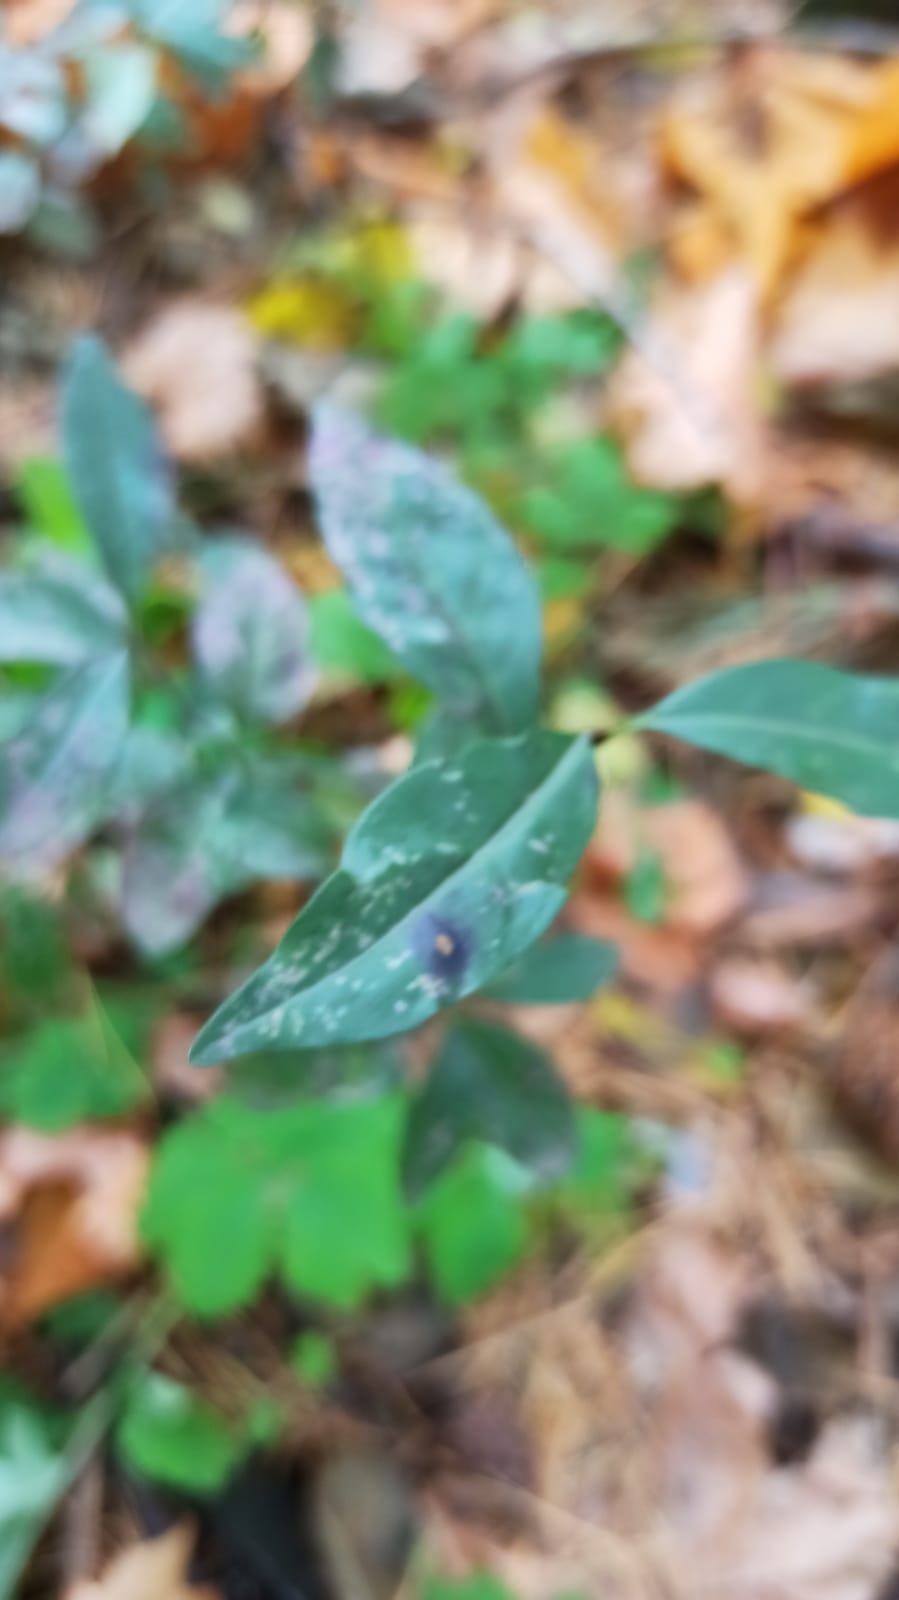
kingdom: Plantae
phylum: Tracheophyta
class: Magnoliopsida
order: Lamiales
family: Oleaceae
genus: Ligustrum
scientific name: Ligustrum vulgare
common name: Wild privet
